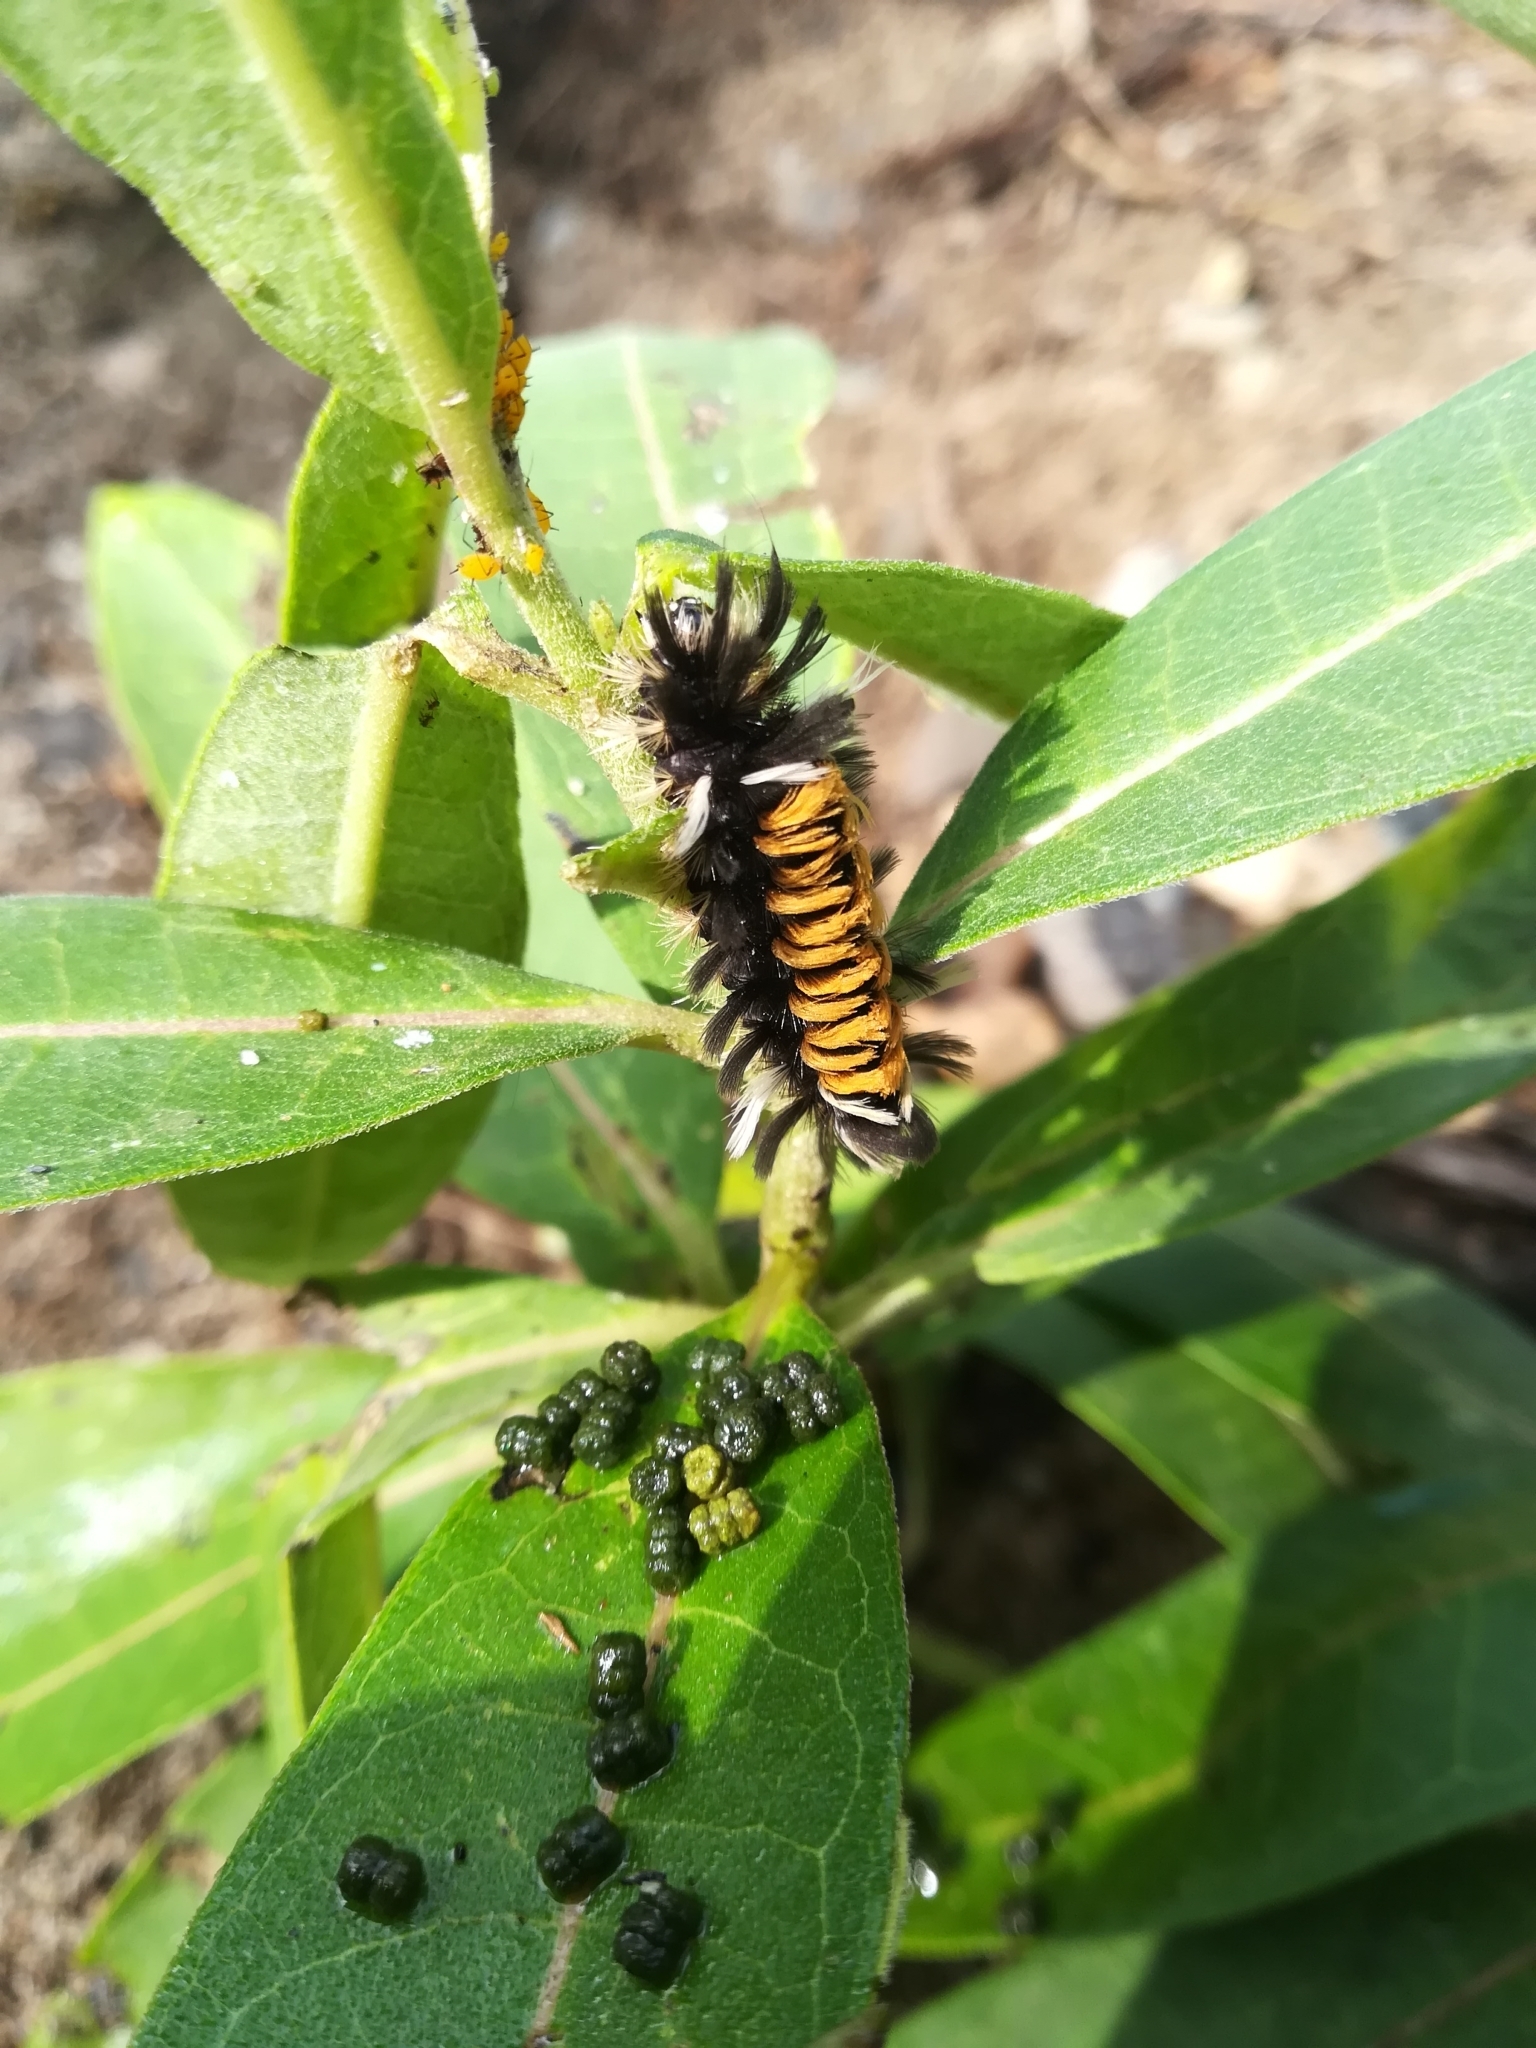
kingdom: Animalia
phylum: Arthropoda
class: Insecta
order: Lepidoptera
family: Erebidae
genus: Euchaetes
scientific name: Euchaetes egle
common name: Milkweed tussock moth
